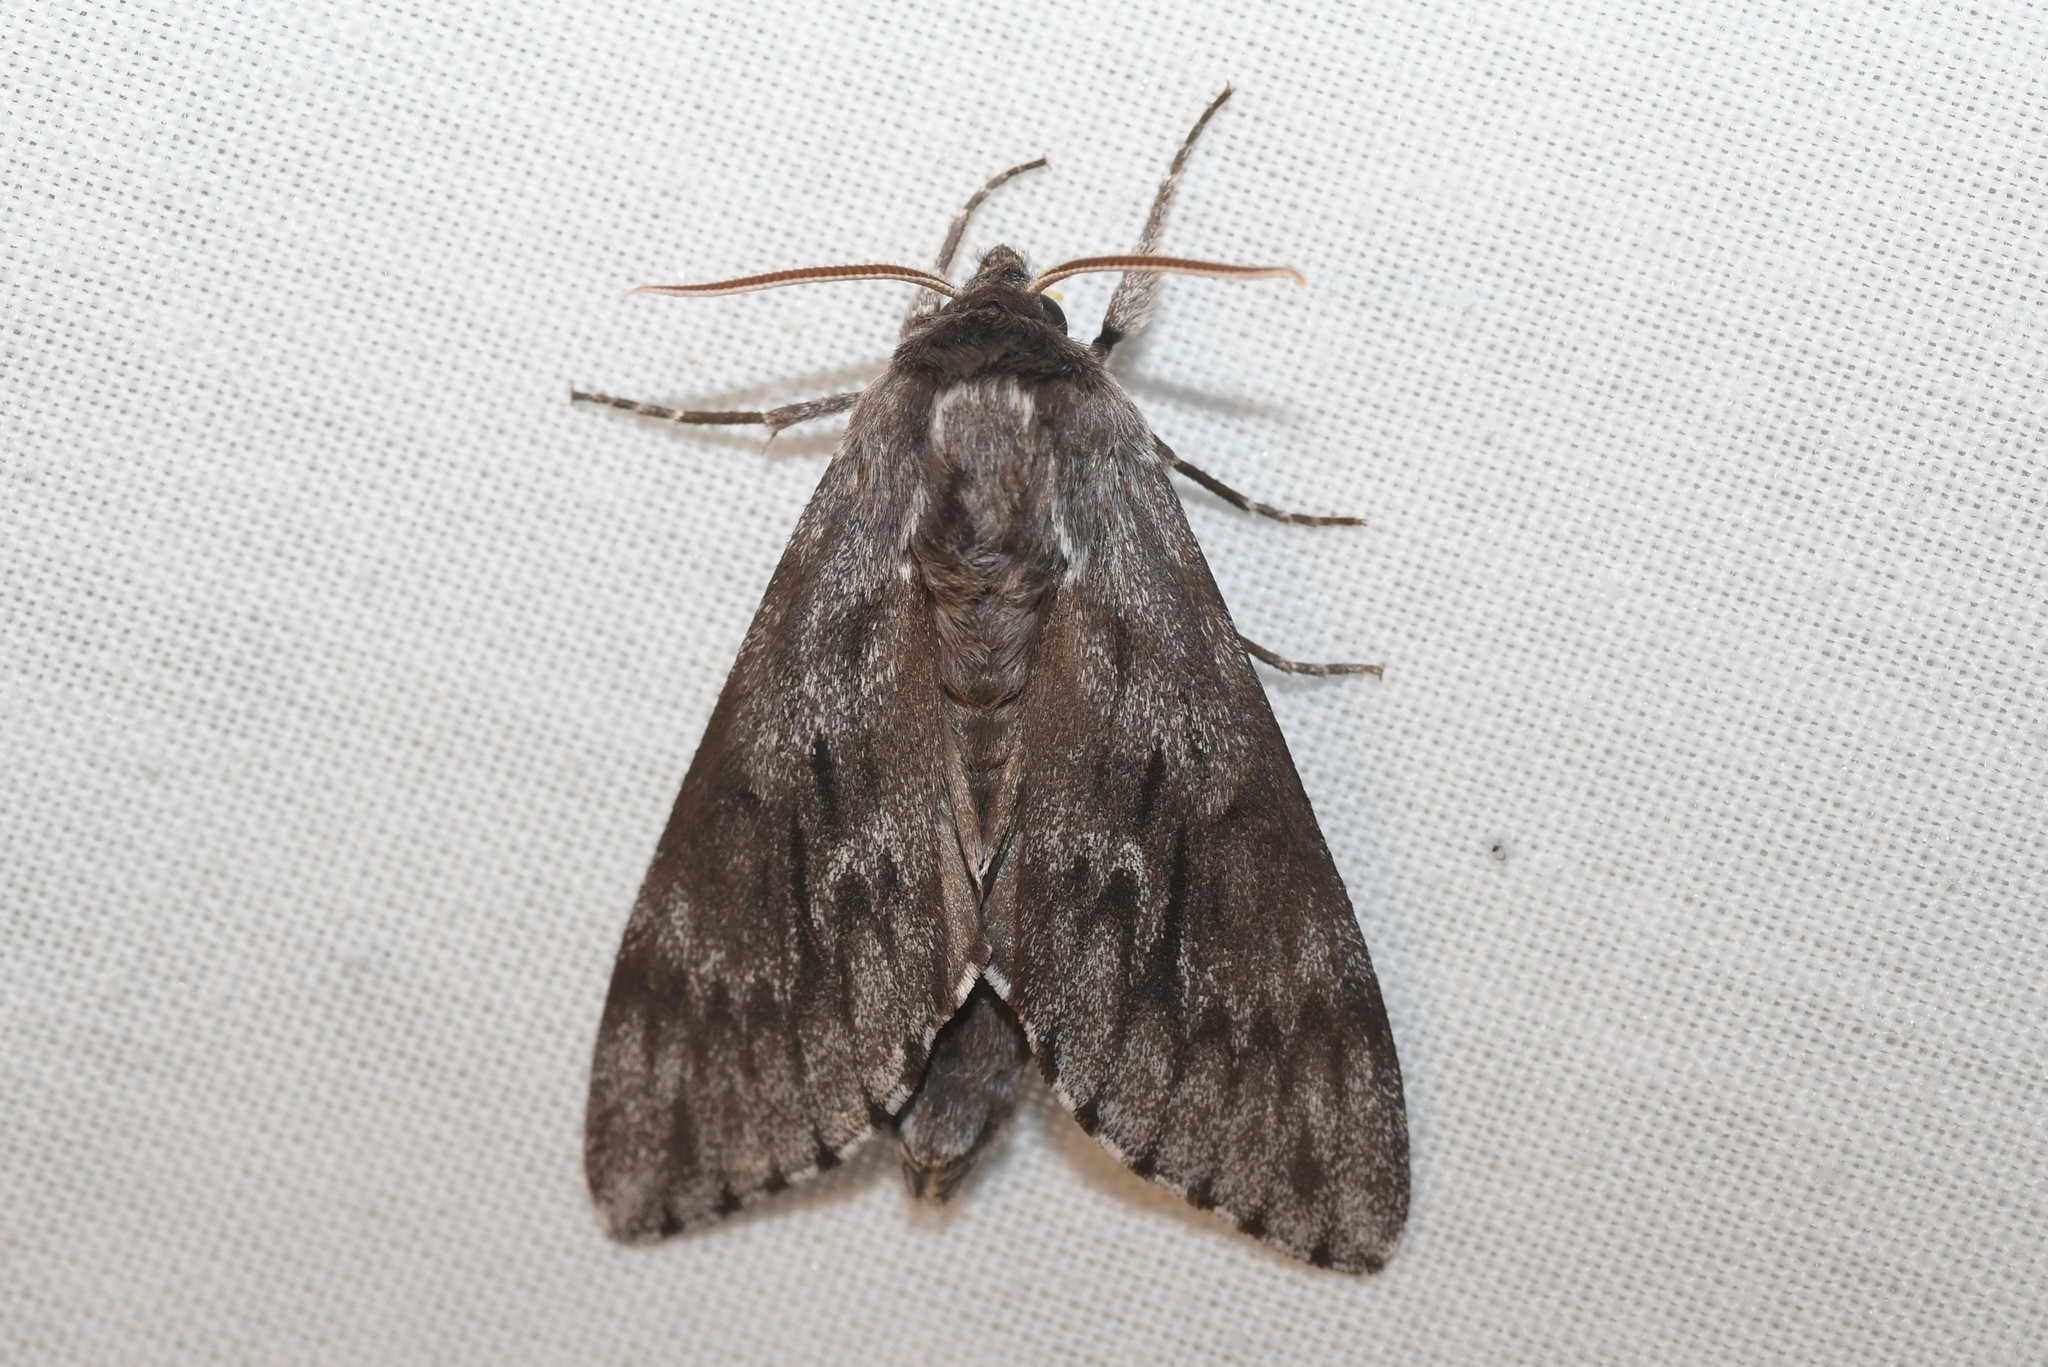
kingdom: Animalia
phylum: Arthropoda
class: Insecta
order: Lepidoptera
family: Sphingidae
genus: Lapara
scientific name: Lapara bombycoides
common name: Northern pine sphinx
